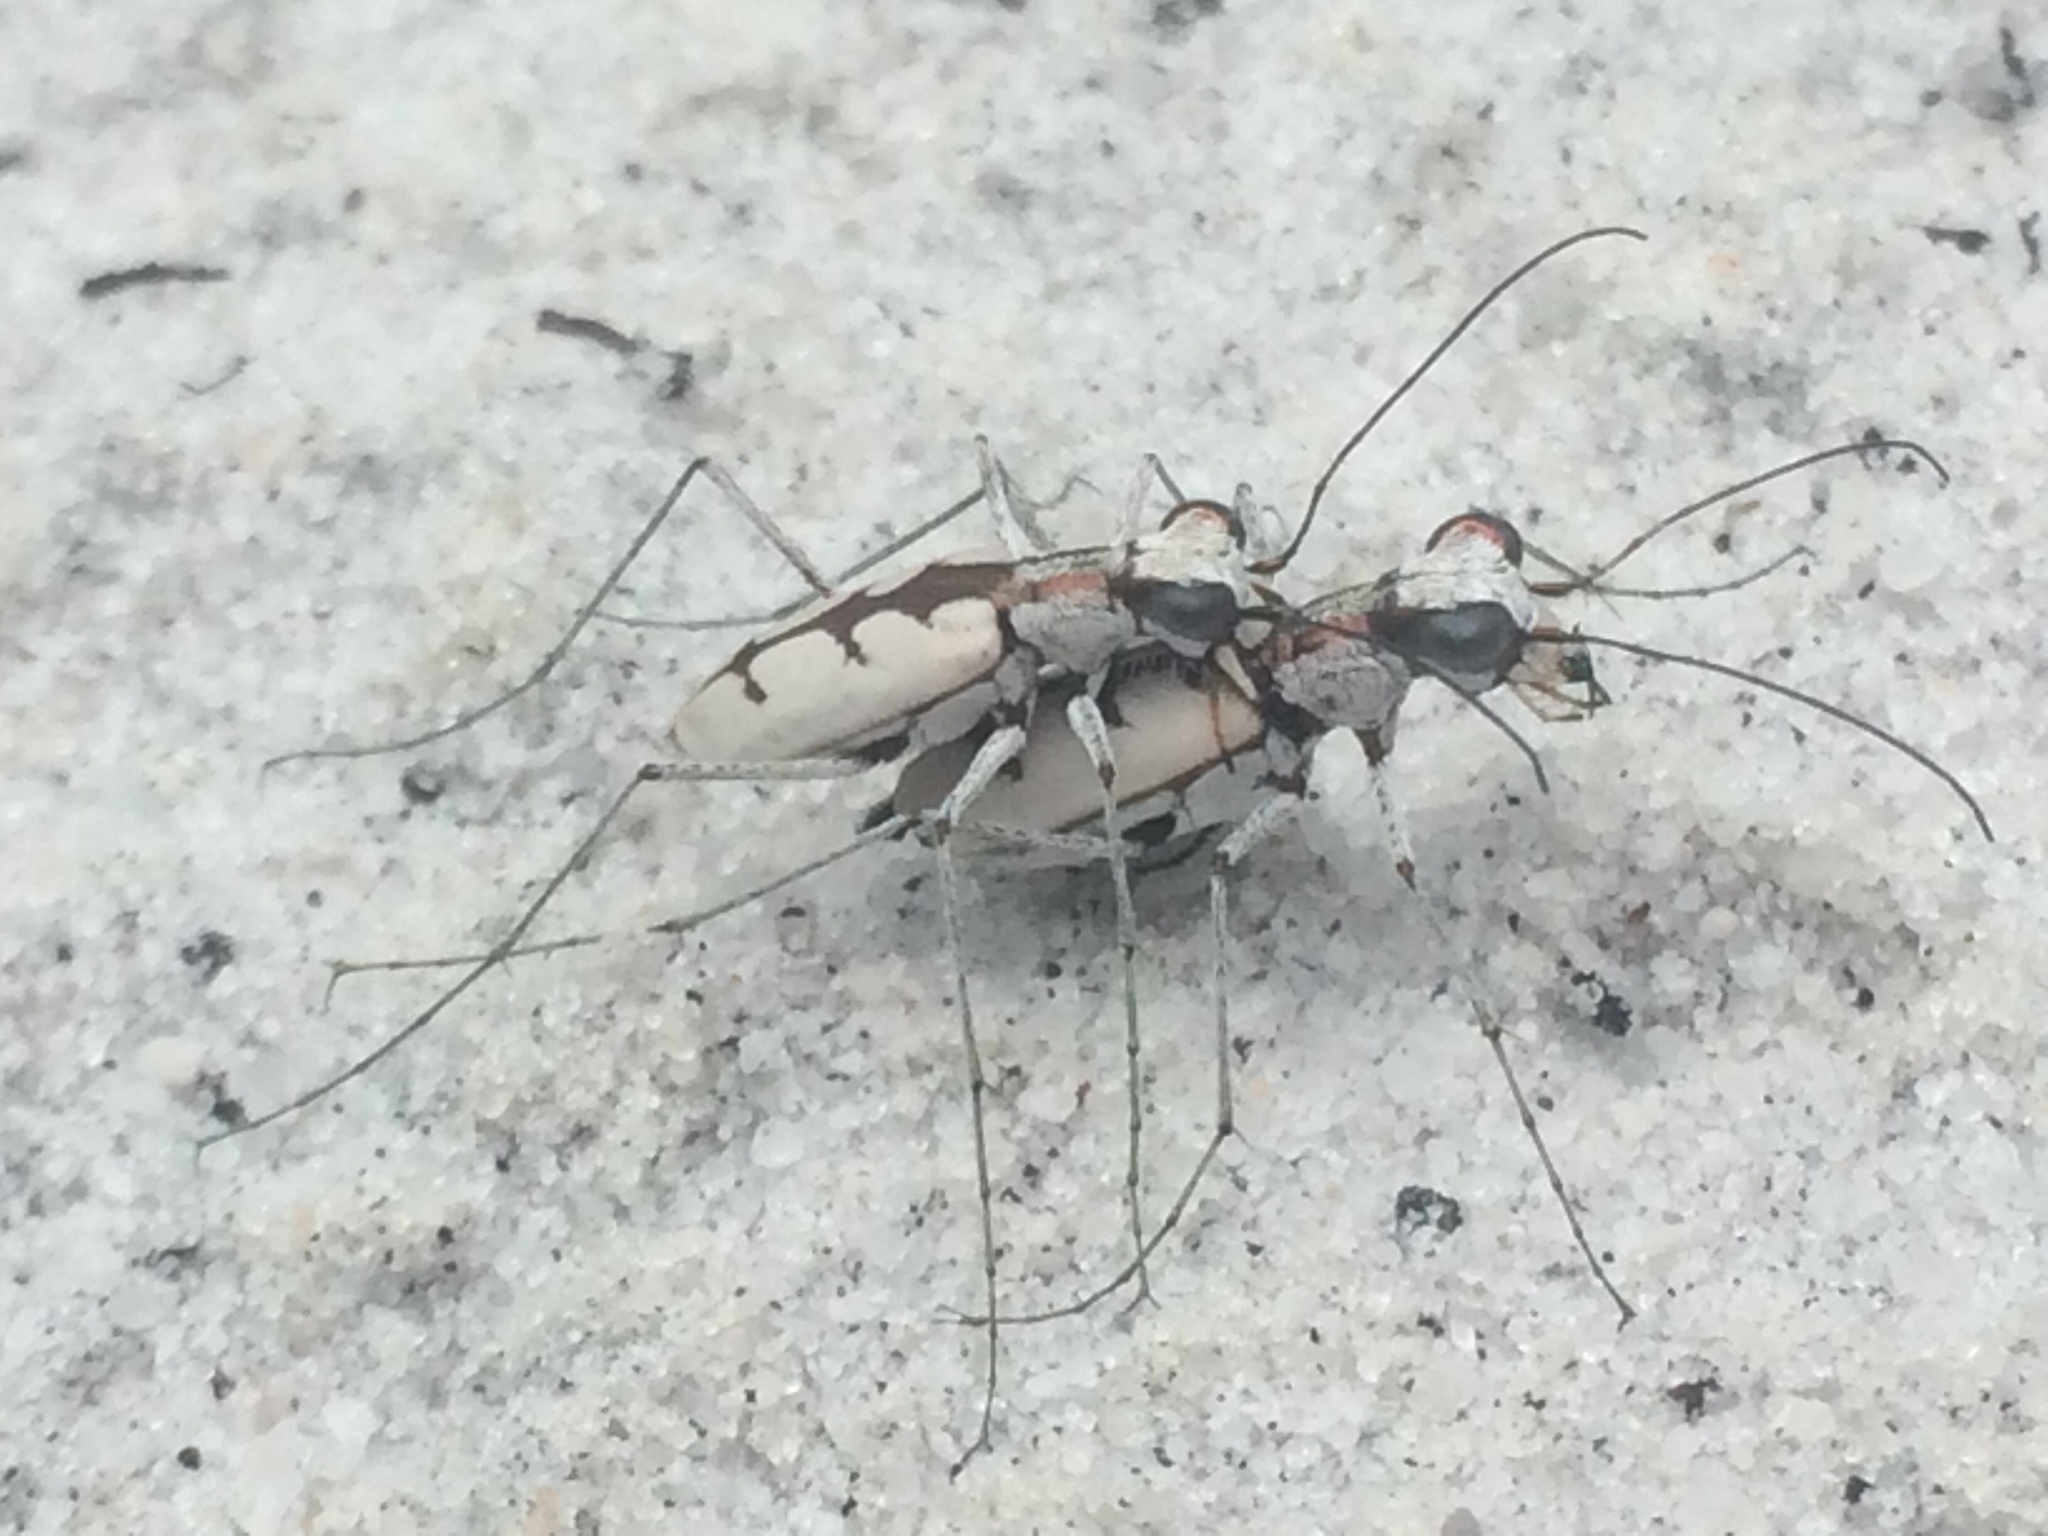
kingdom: Animalia
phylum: Arthropoda
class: Insecta
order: Coleoptera
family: Carabidae
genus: Ellipsoptera
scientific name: Ellipsoptera gratiosa
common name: Whitish tiger beetle
